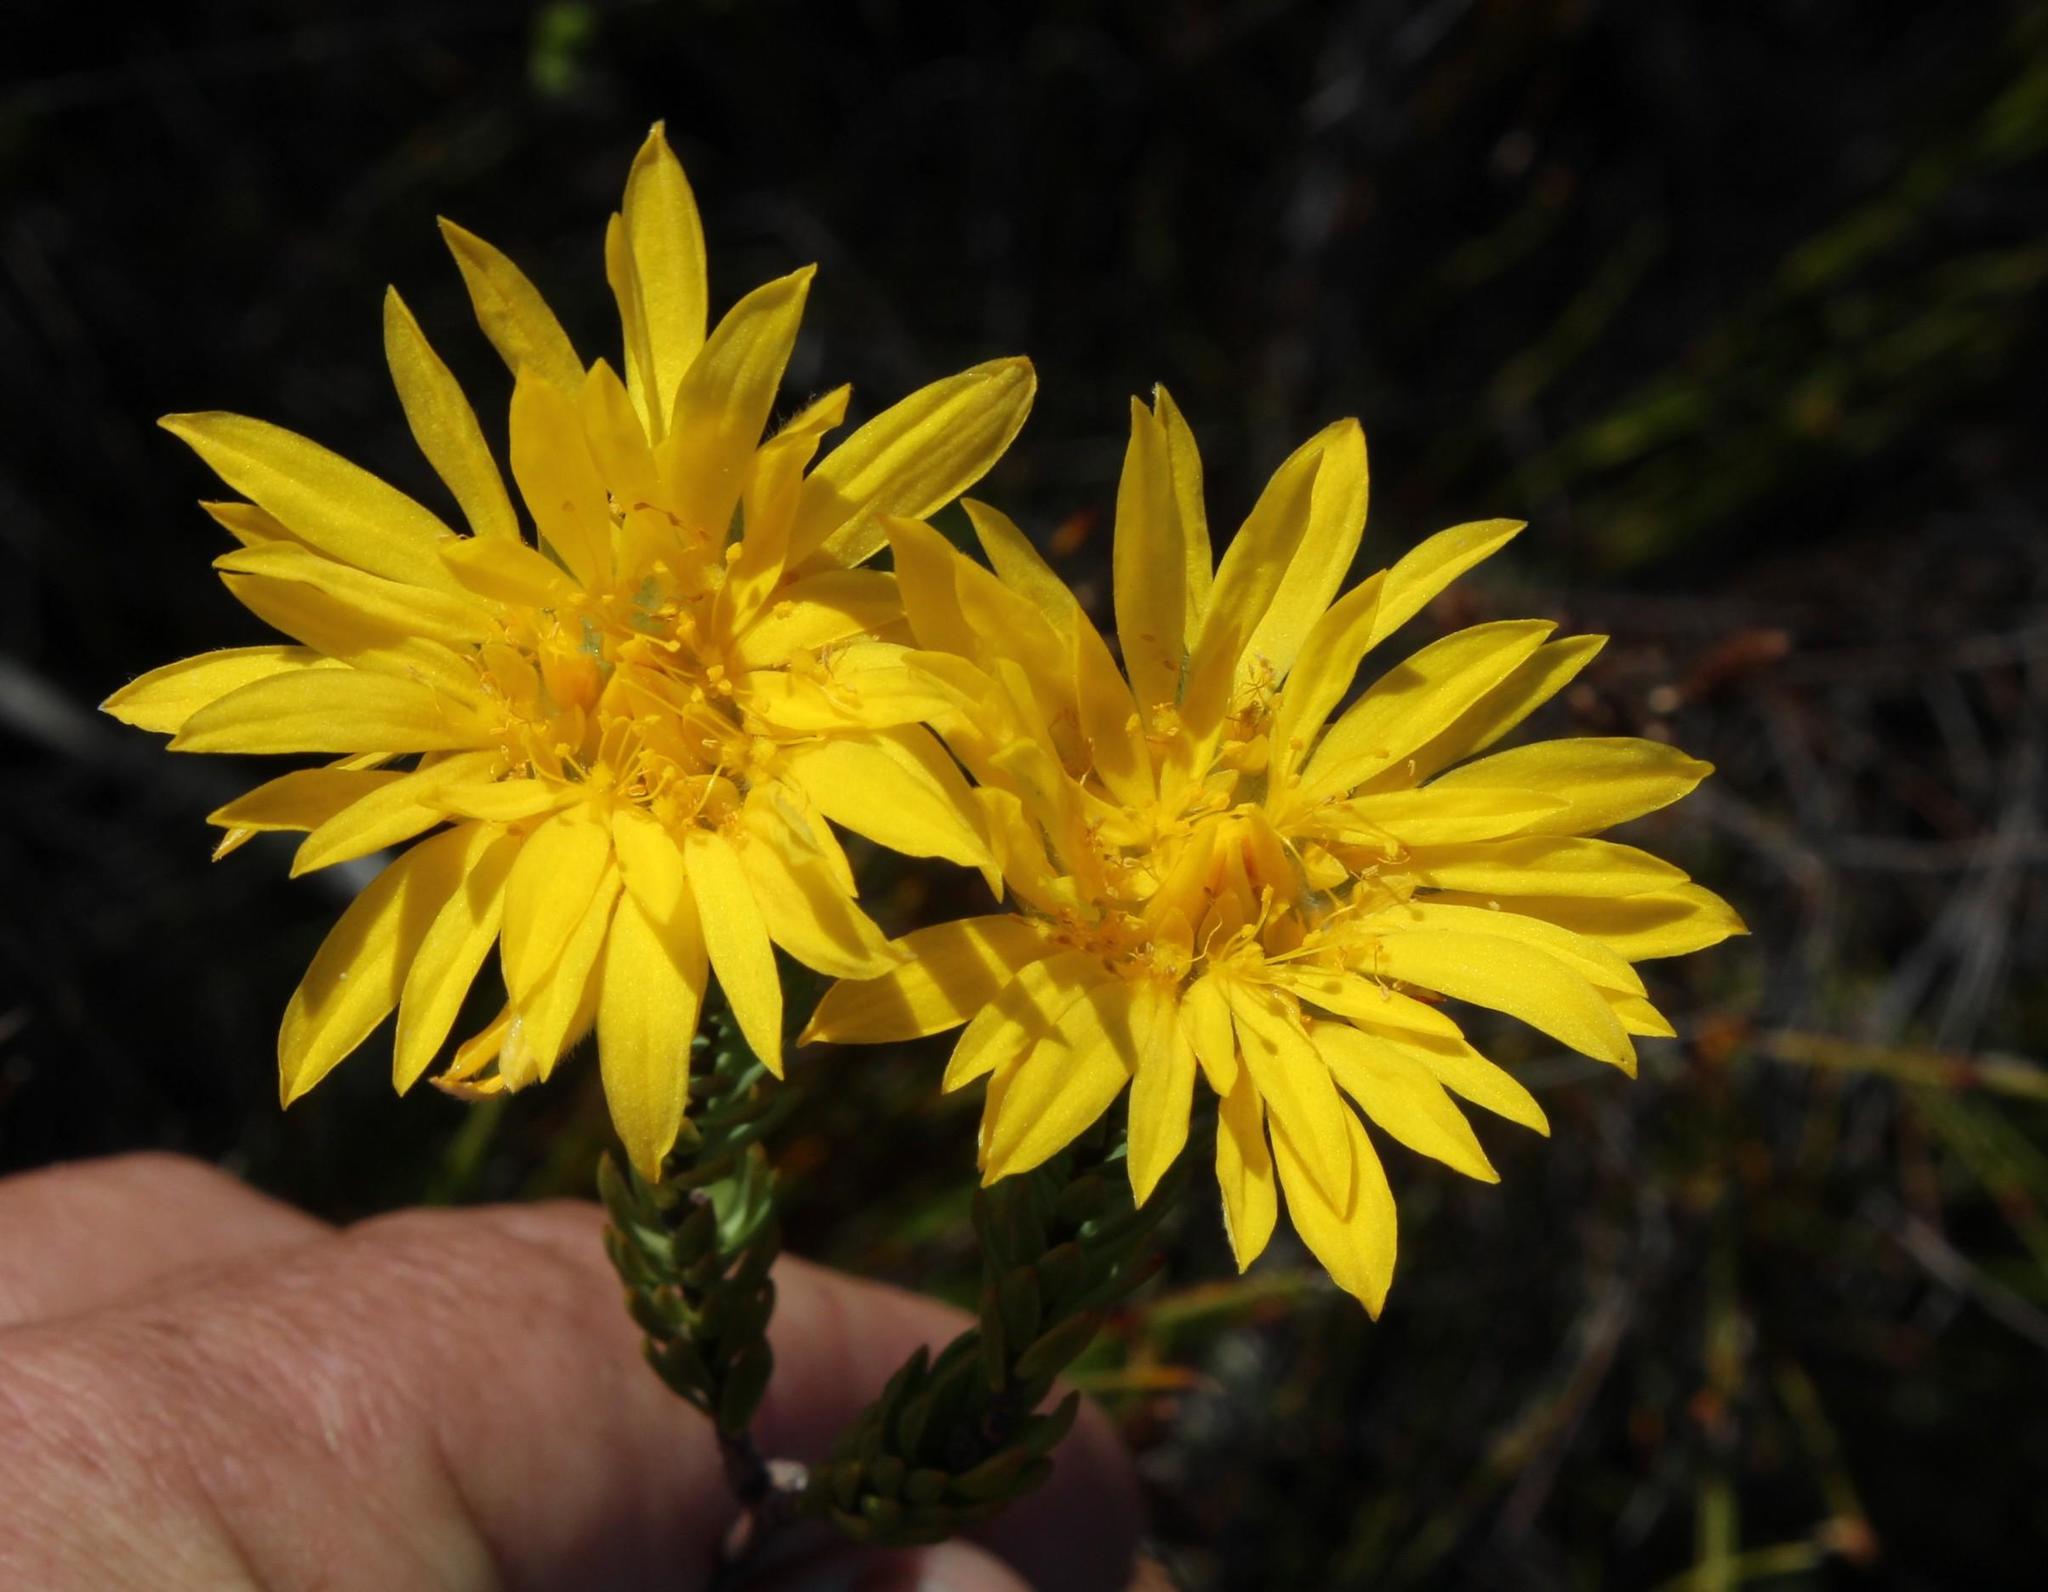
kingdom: Plantae
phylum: Tracheophyta
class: Magnoliopsida
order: Malvales
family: Thymelaeaceae
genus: Lachnaea
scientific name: Lachnaea aurea
